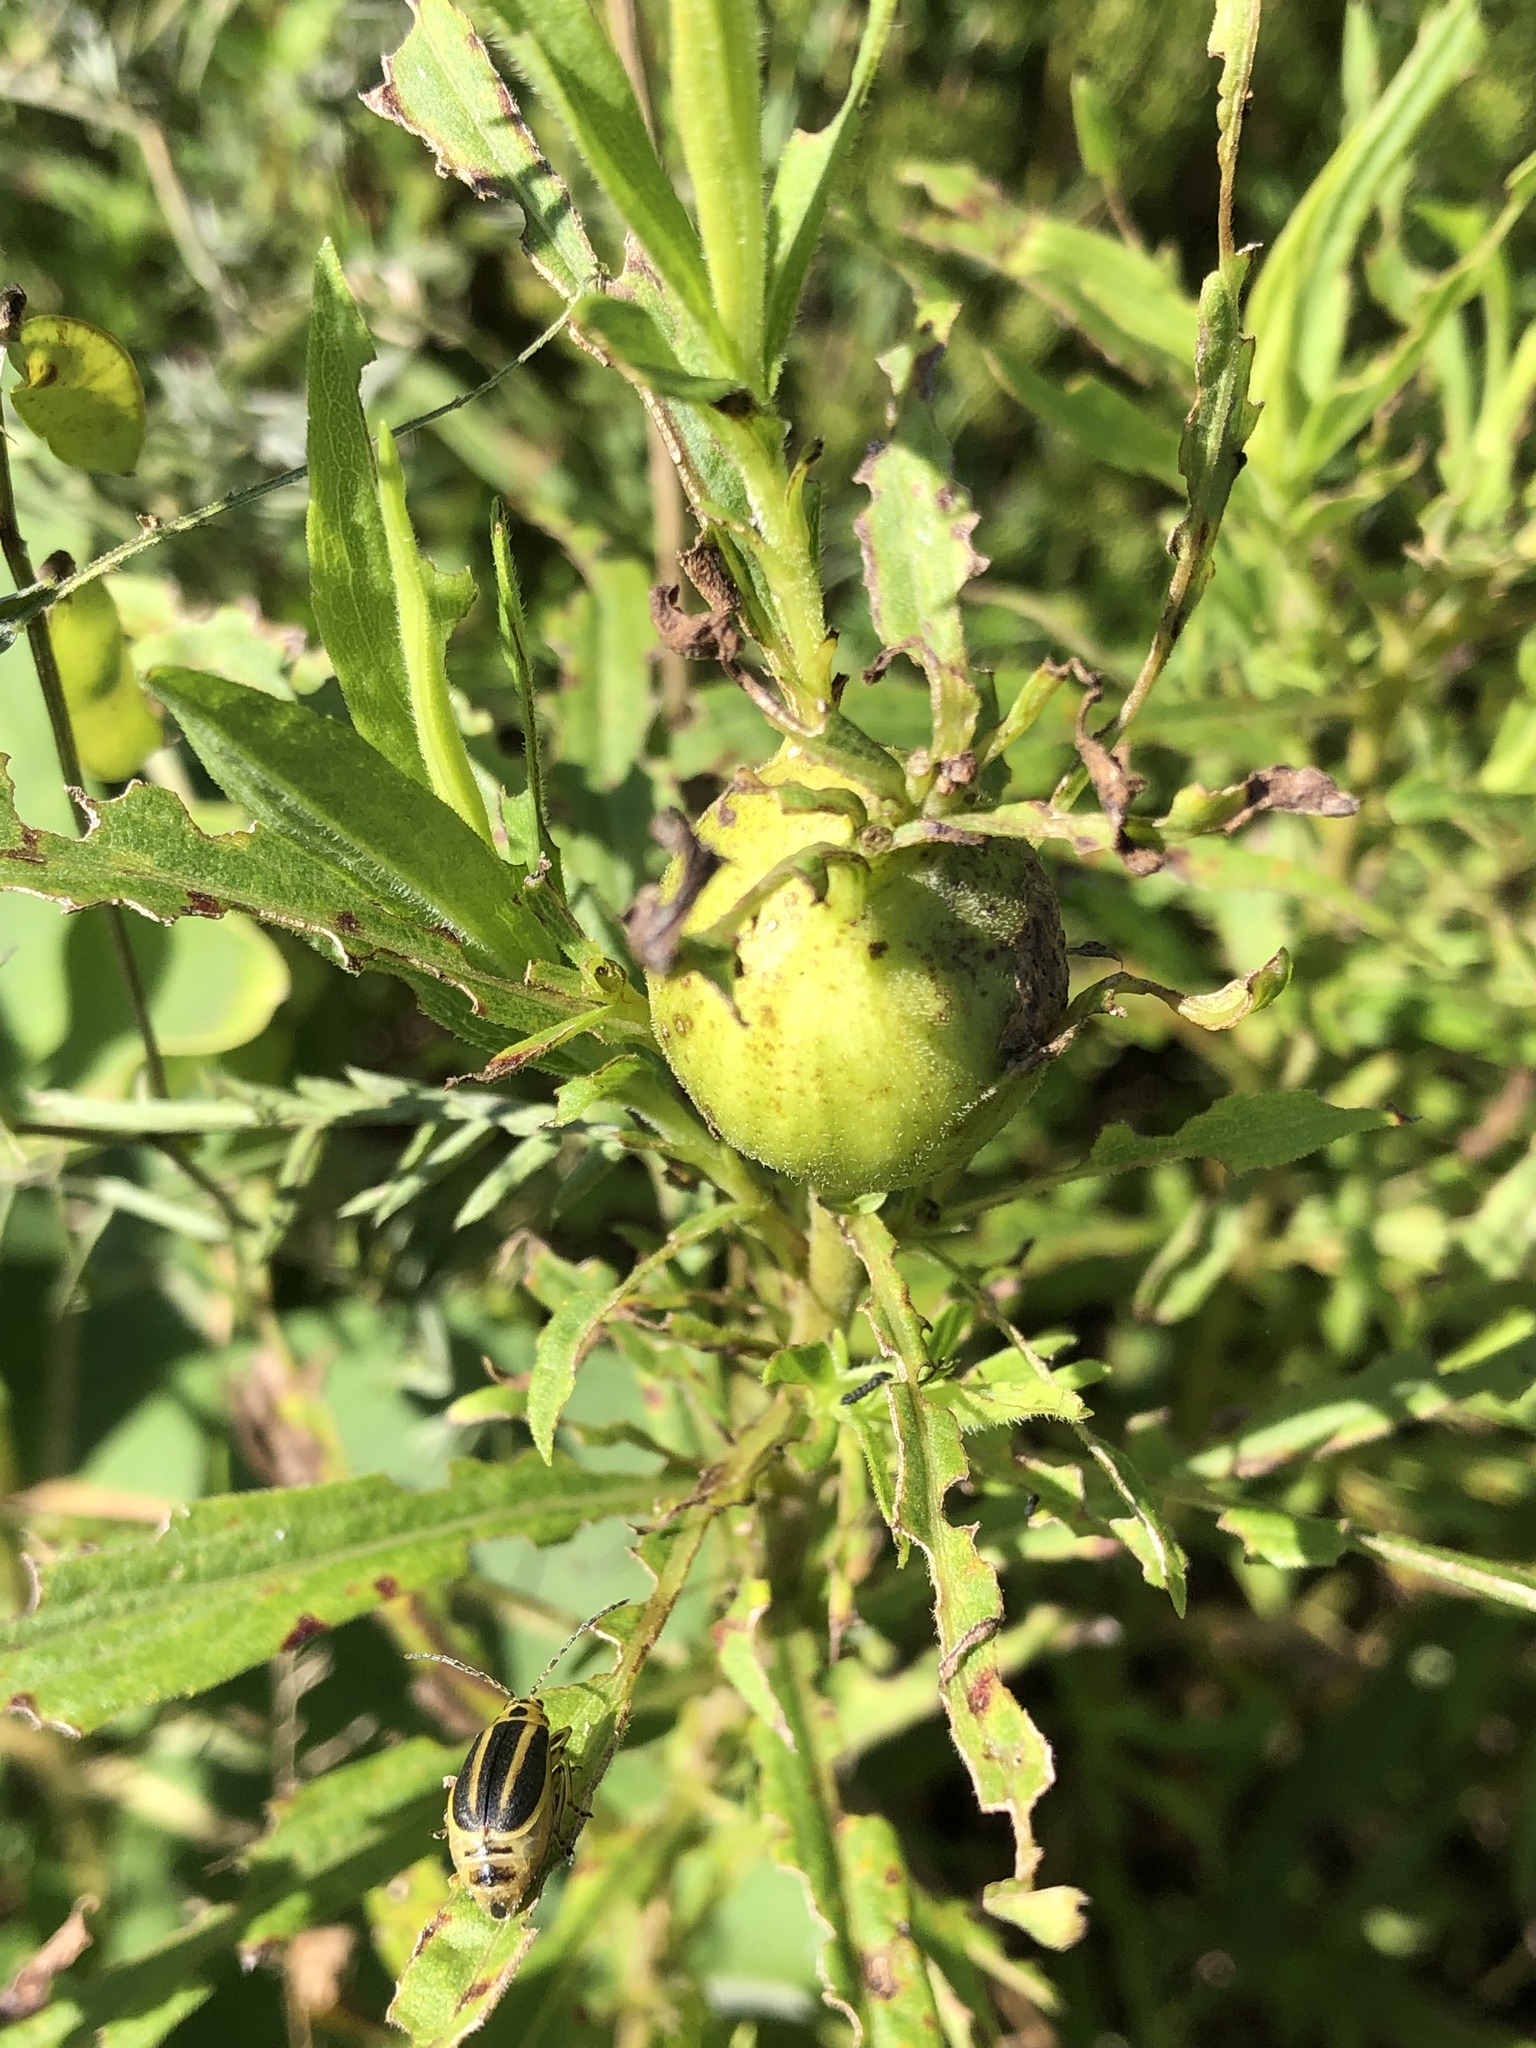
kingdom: Animalia
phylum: Arthropoda
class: Insecta
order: Diptera
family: Tephritidae
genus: Eurosta
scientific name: Eurosta solidaginis
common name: Goldenrod gall fly
